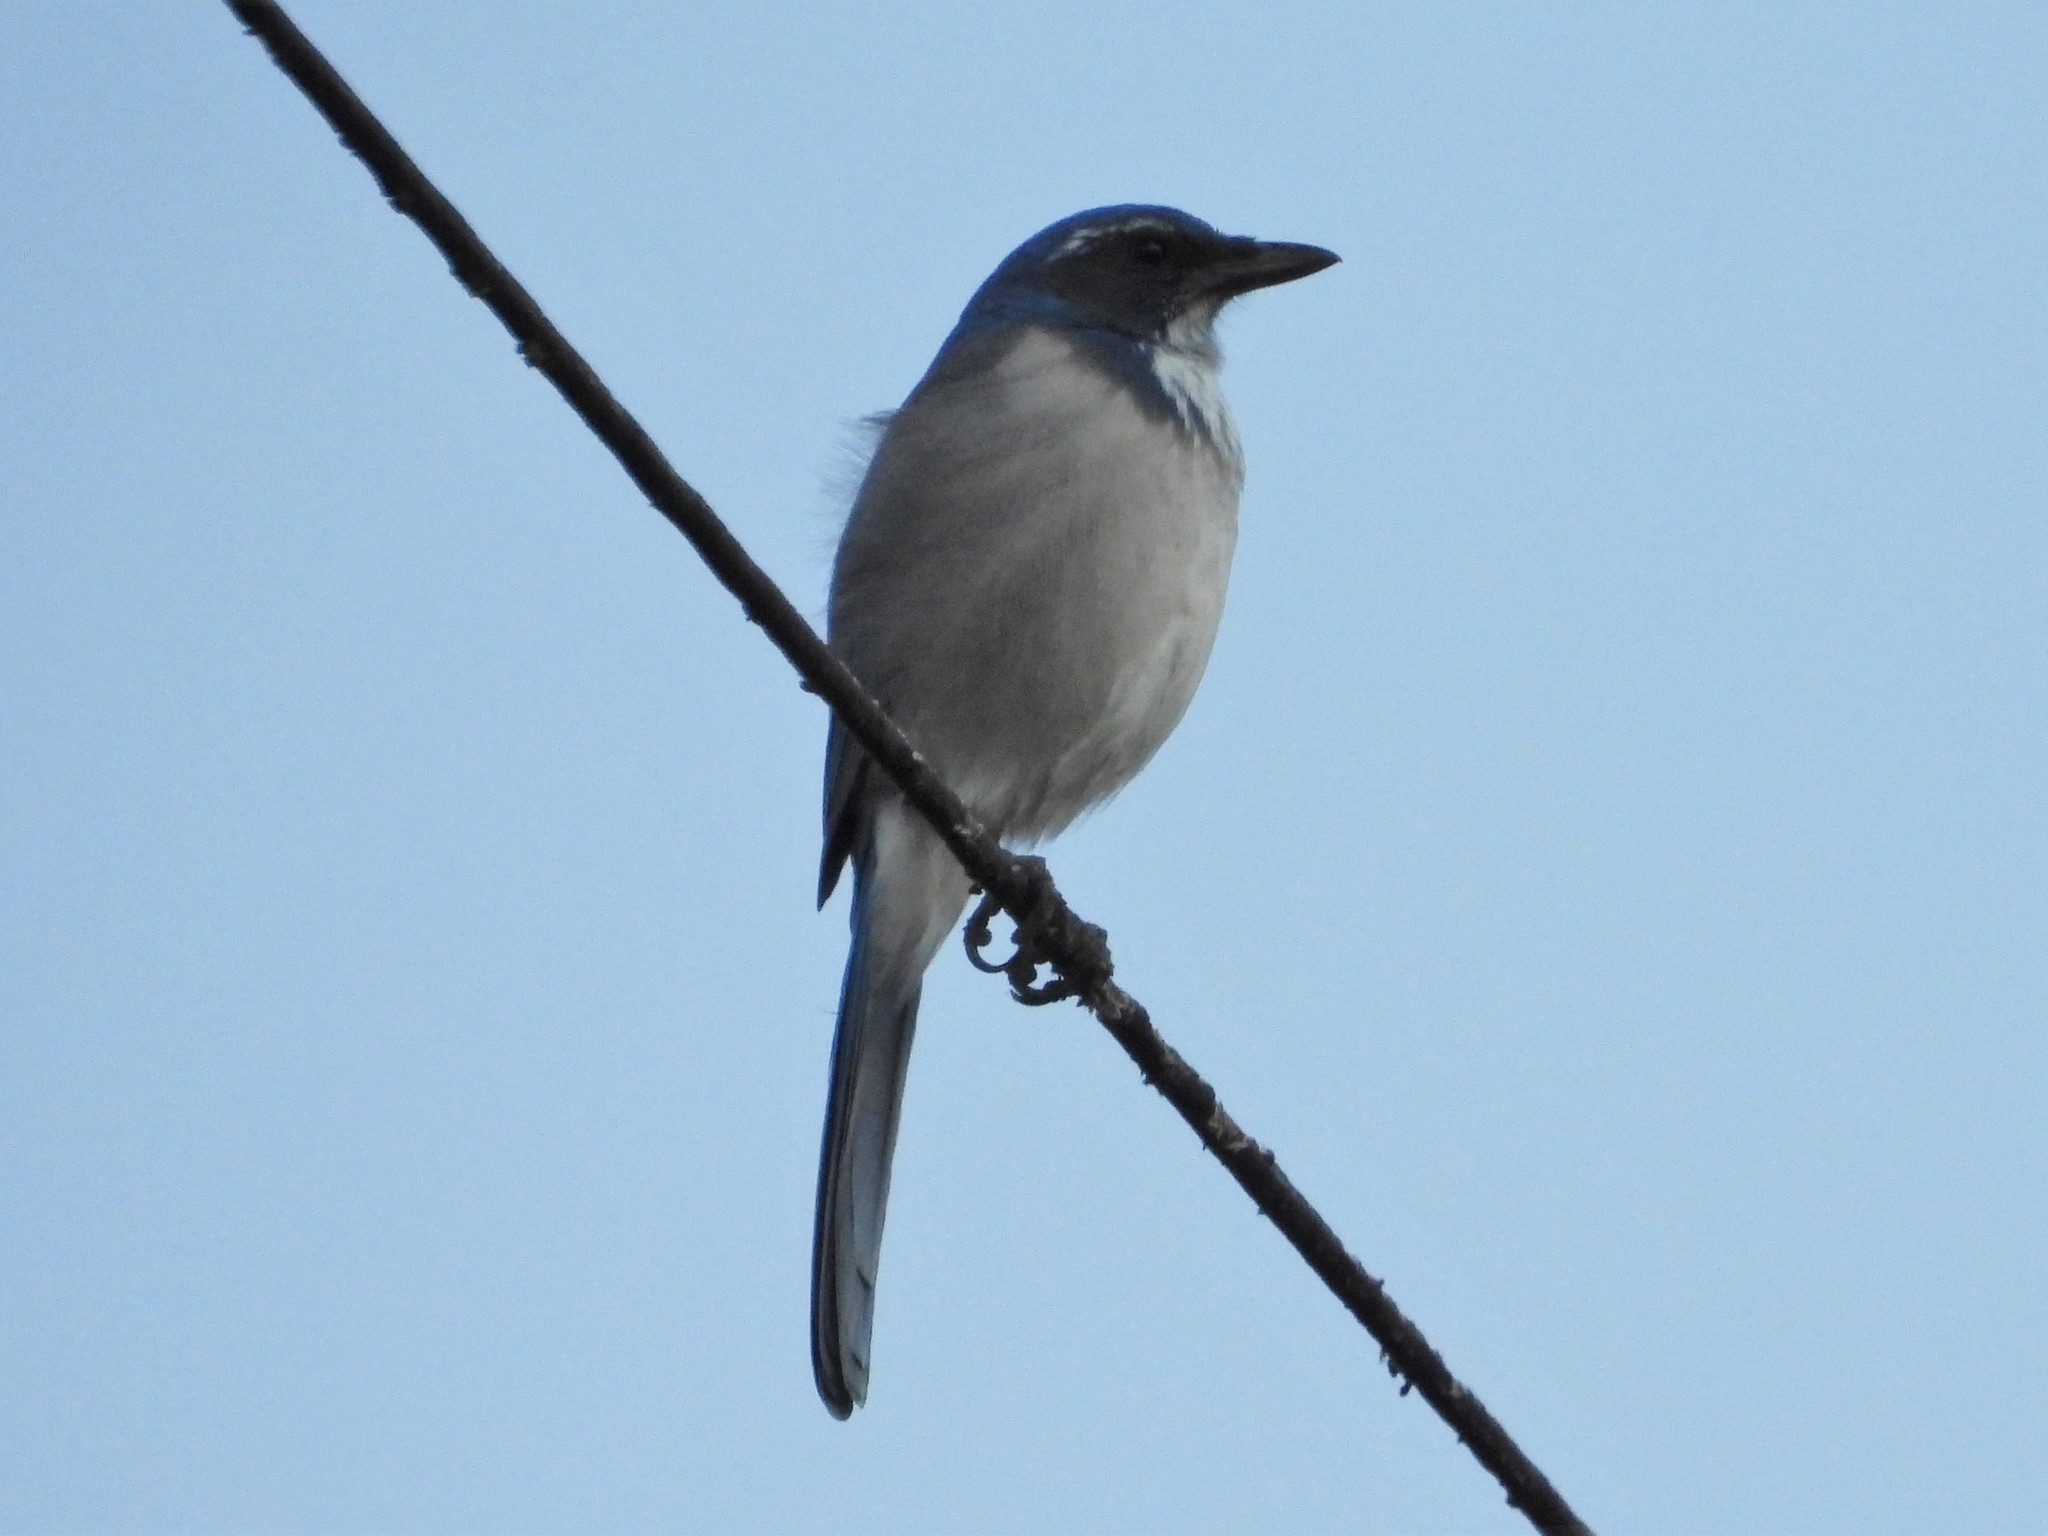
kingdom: Animalia
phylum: Chordata
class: Aves
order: Passeriformes
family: Corvidae
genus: Aphelocoma
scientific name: Aphelocoma californica
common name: California scrub-jay
